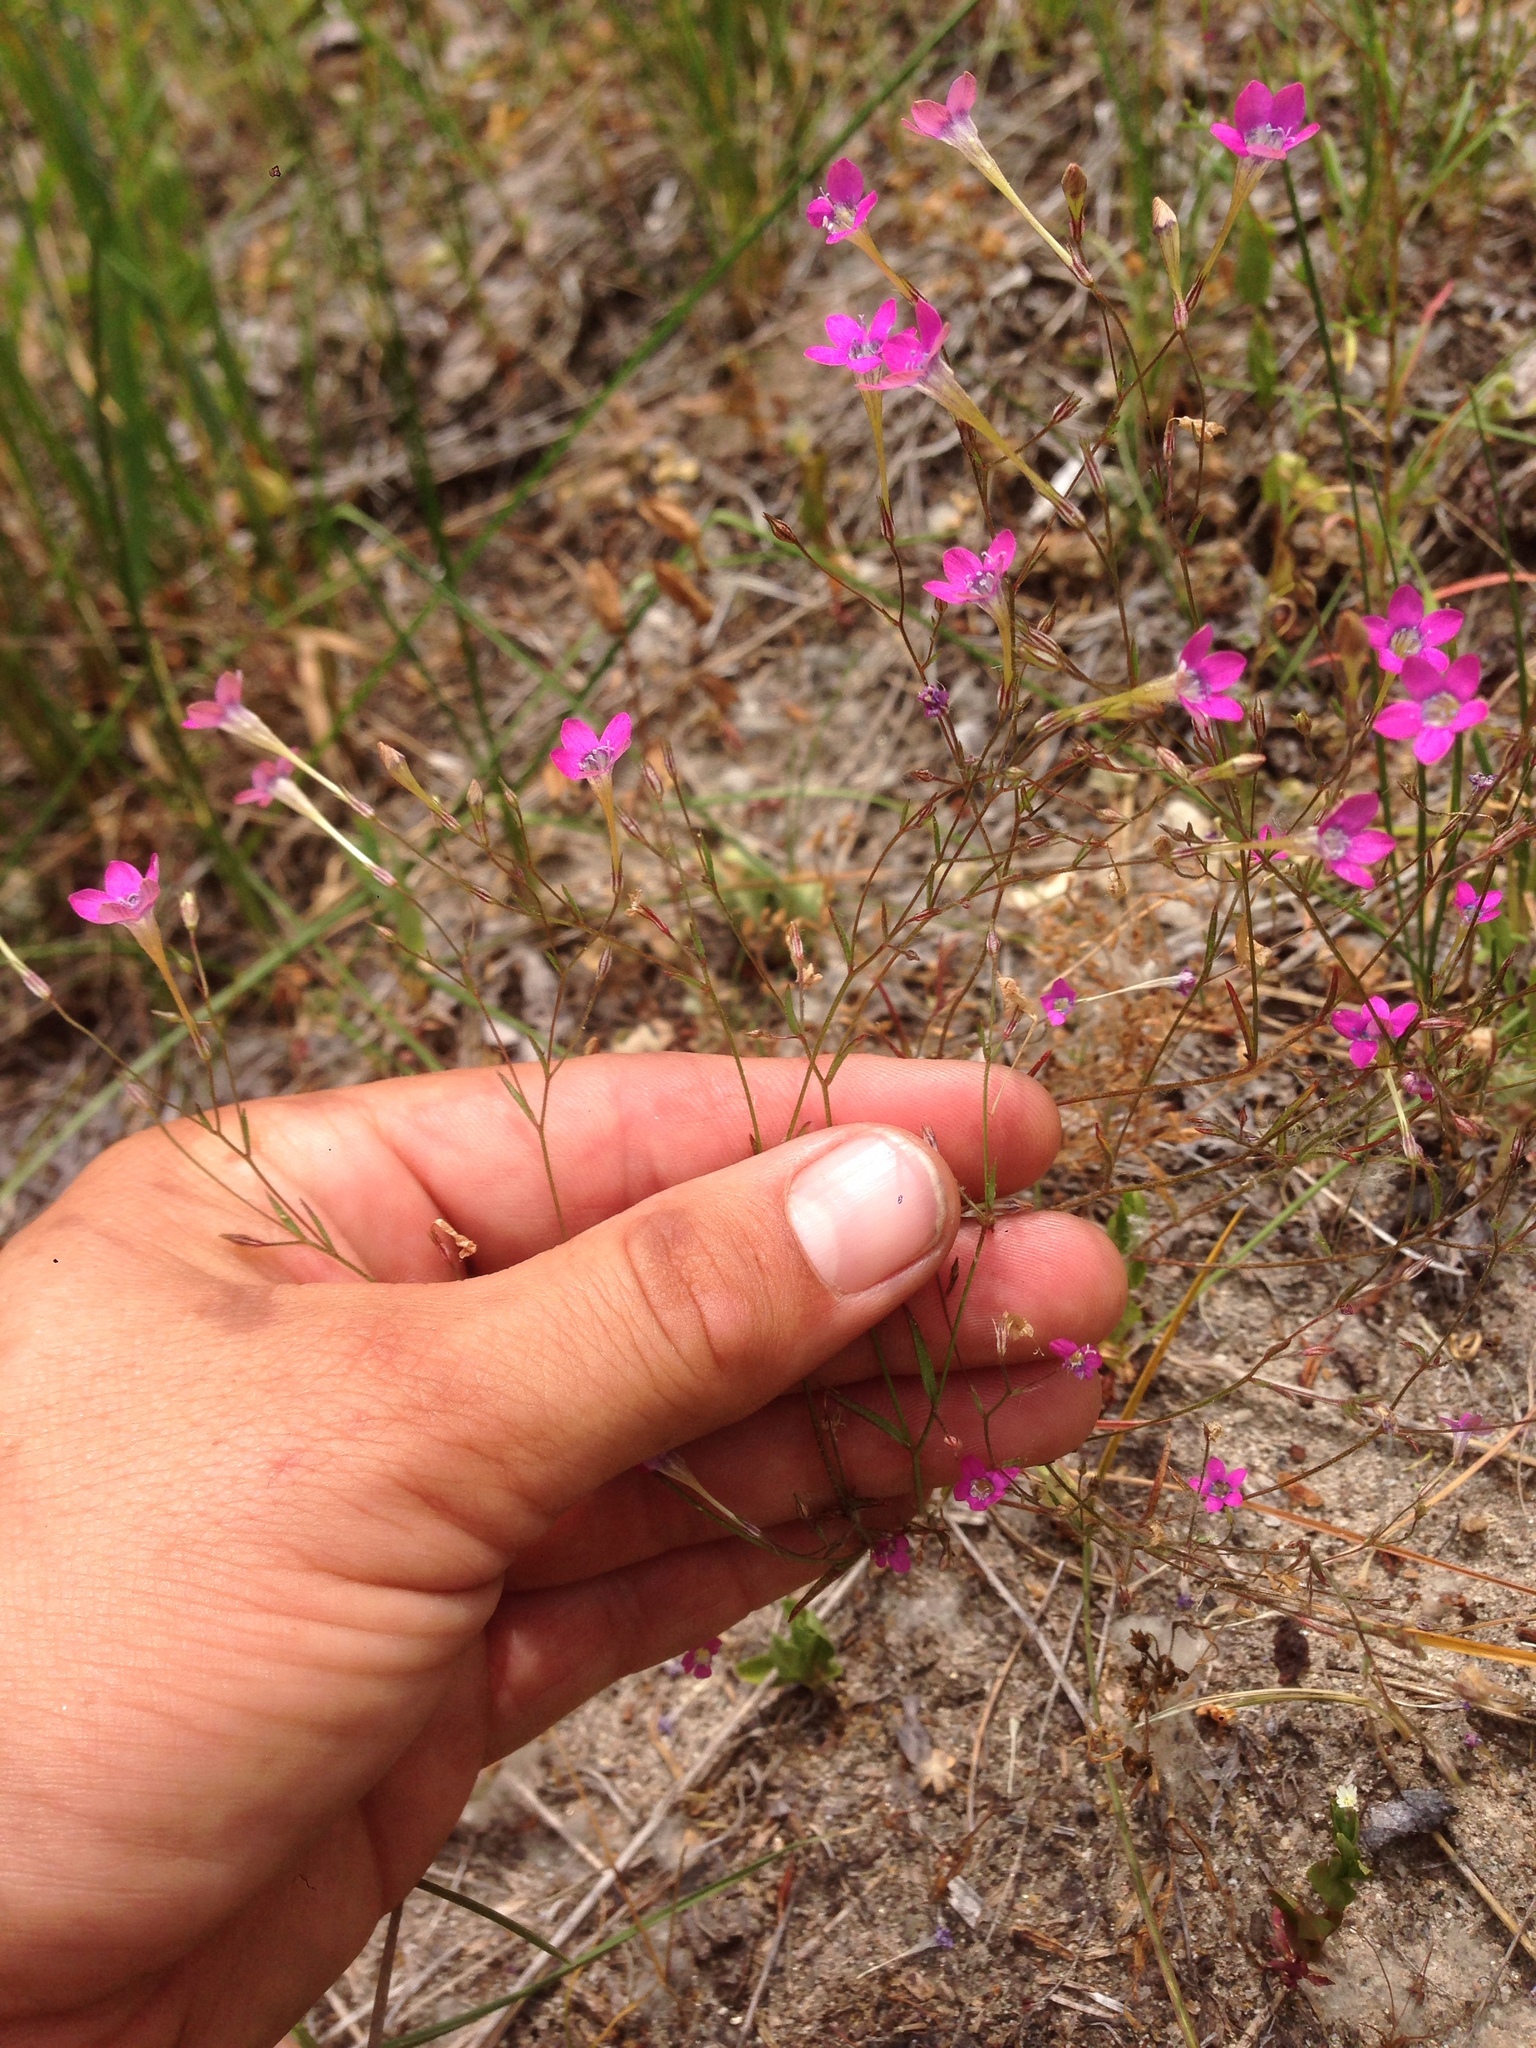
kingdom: Plantae
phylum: Tracheophyta
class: Magnoliopsida
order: Ericales
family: Polemoniaceae
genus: Navarretia
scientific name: Navarretia leptalea
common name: Bridges' pincushionplant
